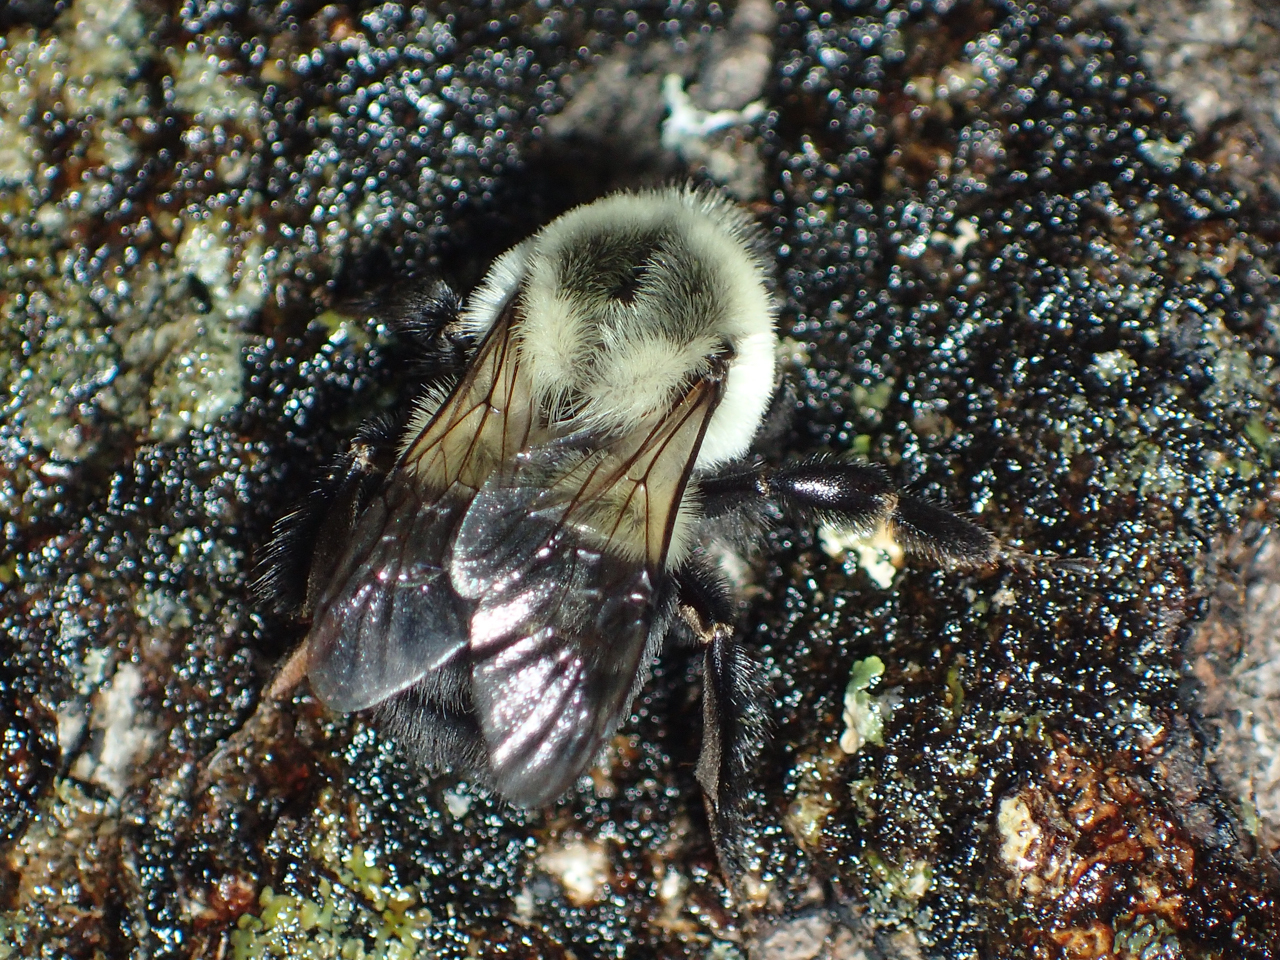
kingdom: Animalia
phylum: Arthropoda
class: Insecta
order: Hymenoptera
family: Apidae
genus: Bombus
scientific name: Bombus impatiens
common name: Common eastern bumble bee
